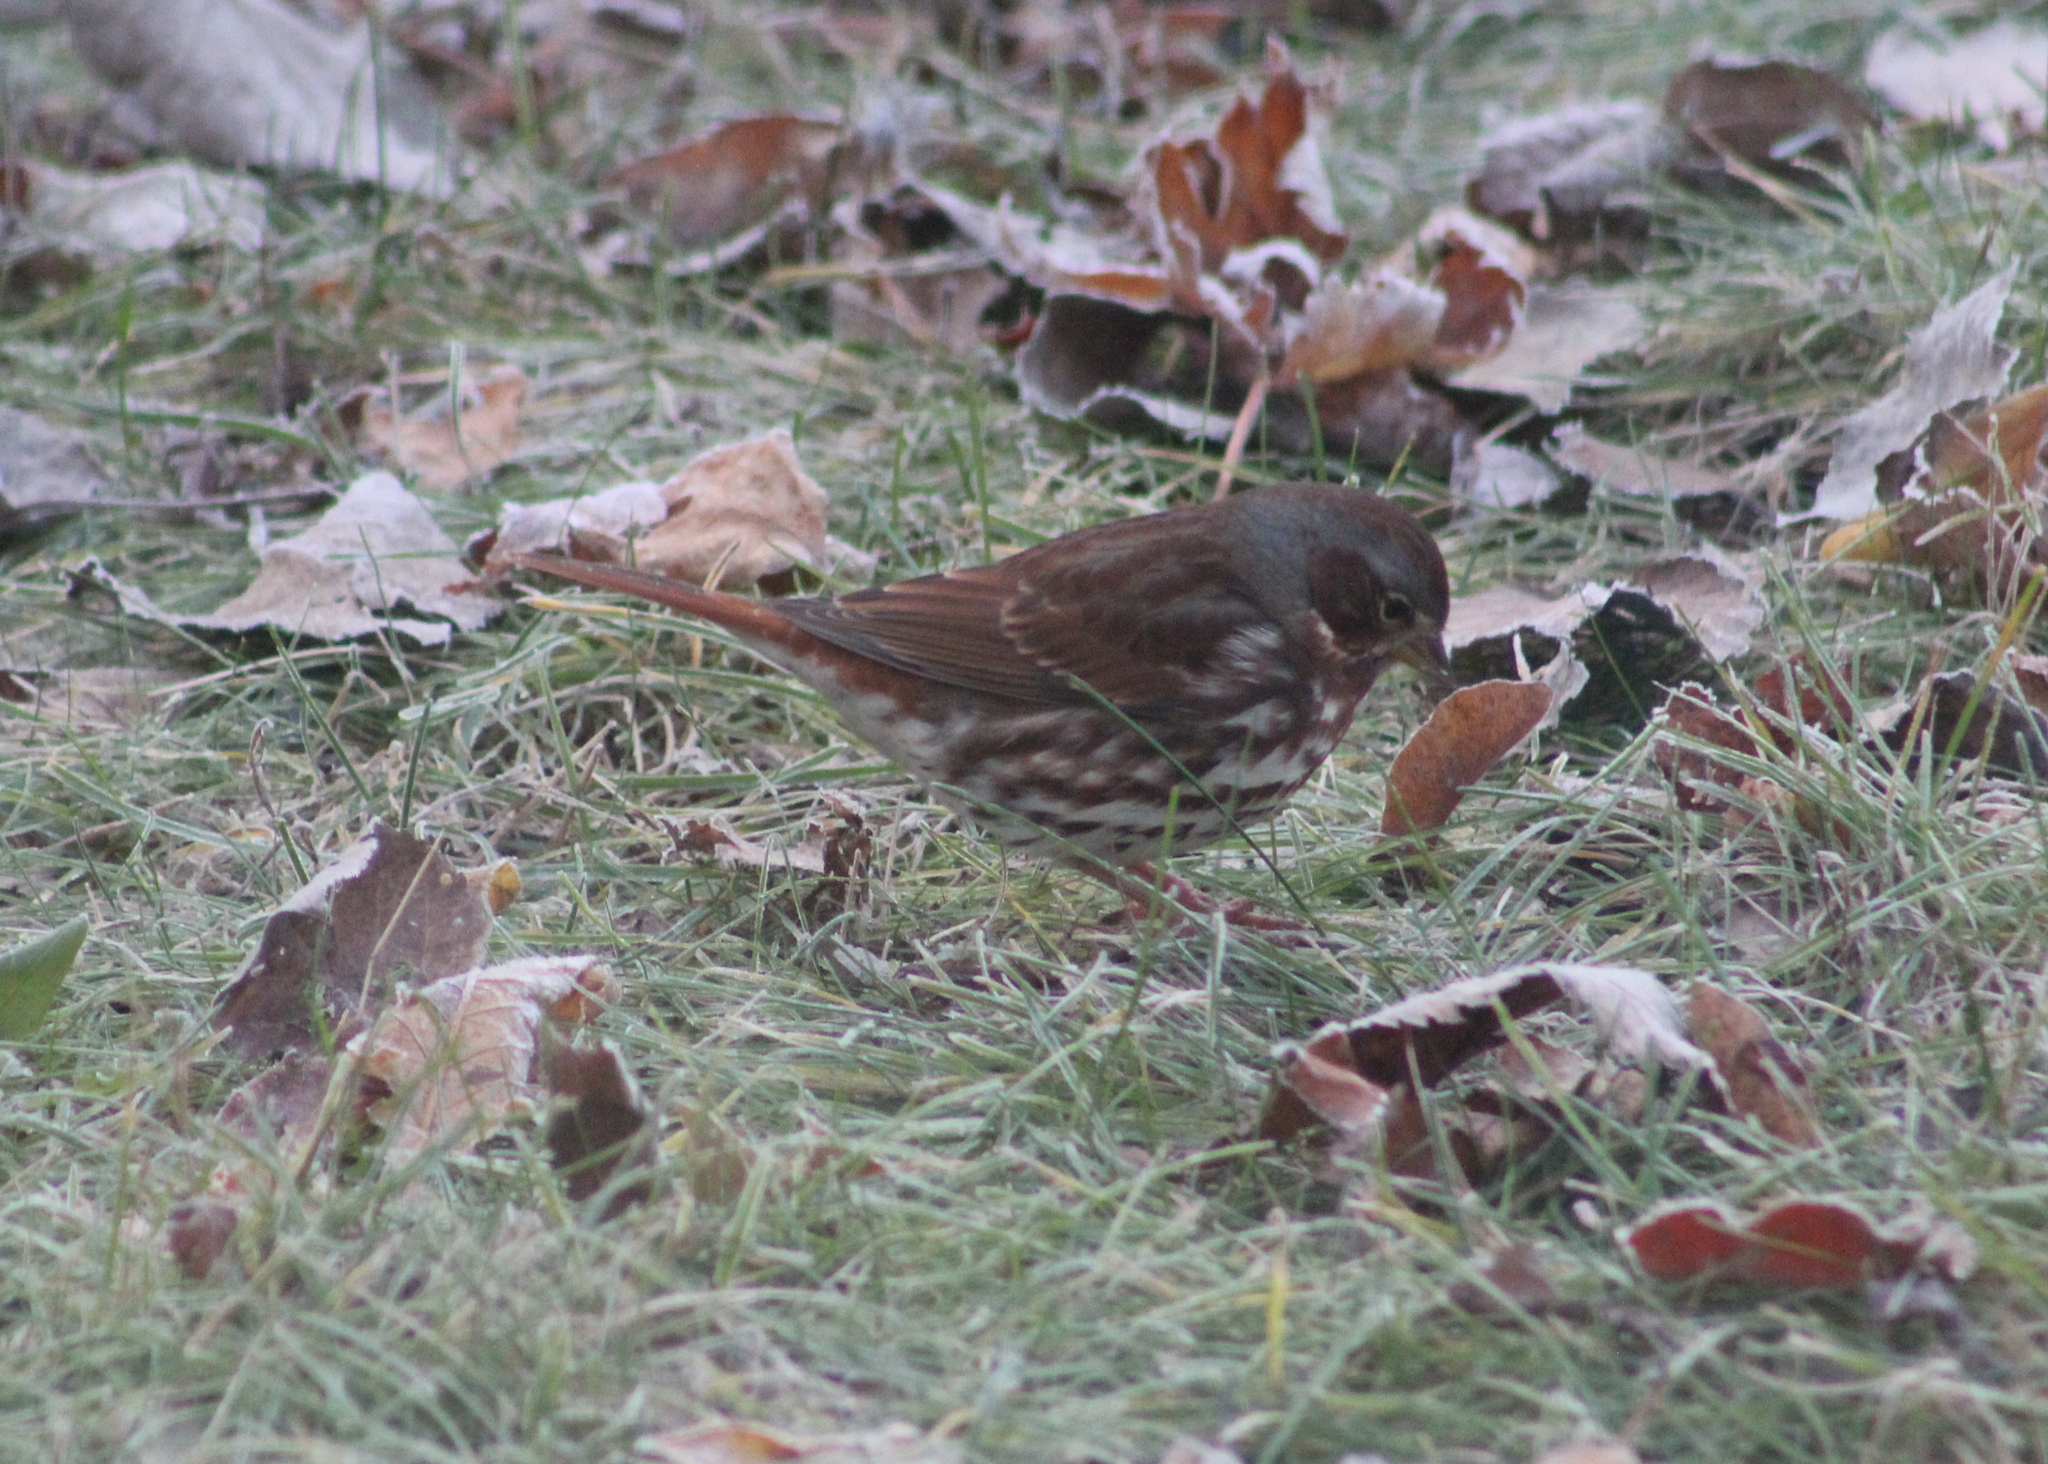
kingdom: Animalia
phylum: Chordata
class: Aves
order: Passeriformes
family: Passerellidae
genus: Passerella
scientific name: Passerella iliaca
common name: Fox sparrow
